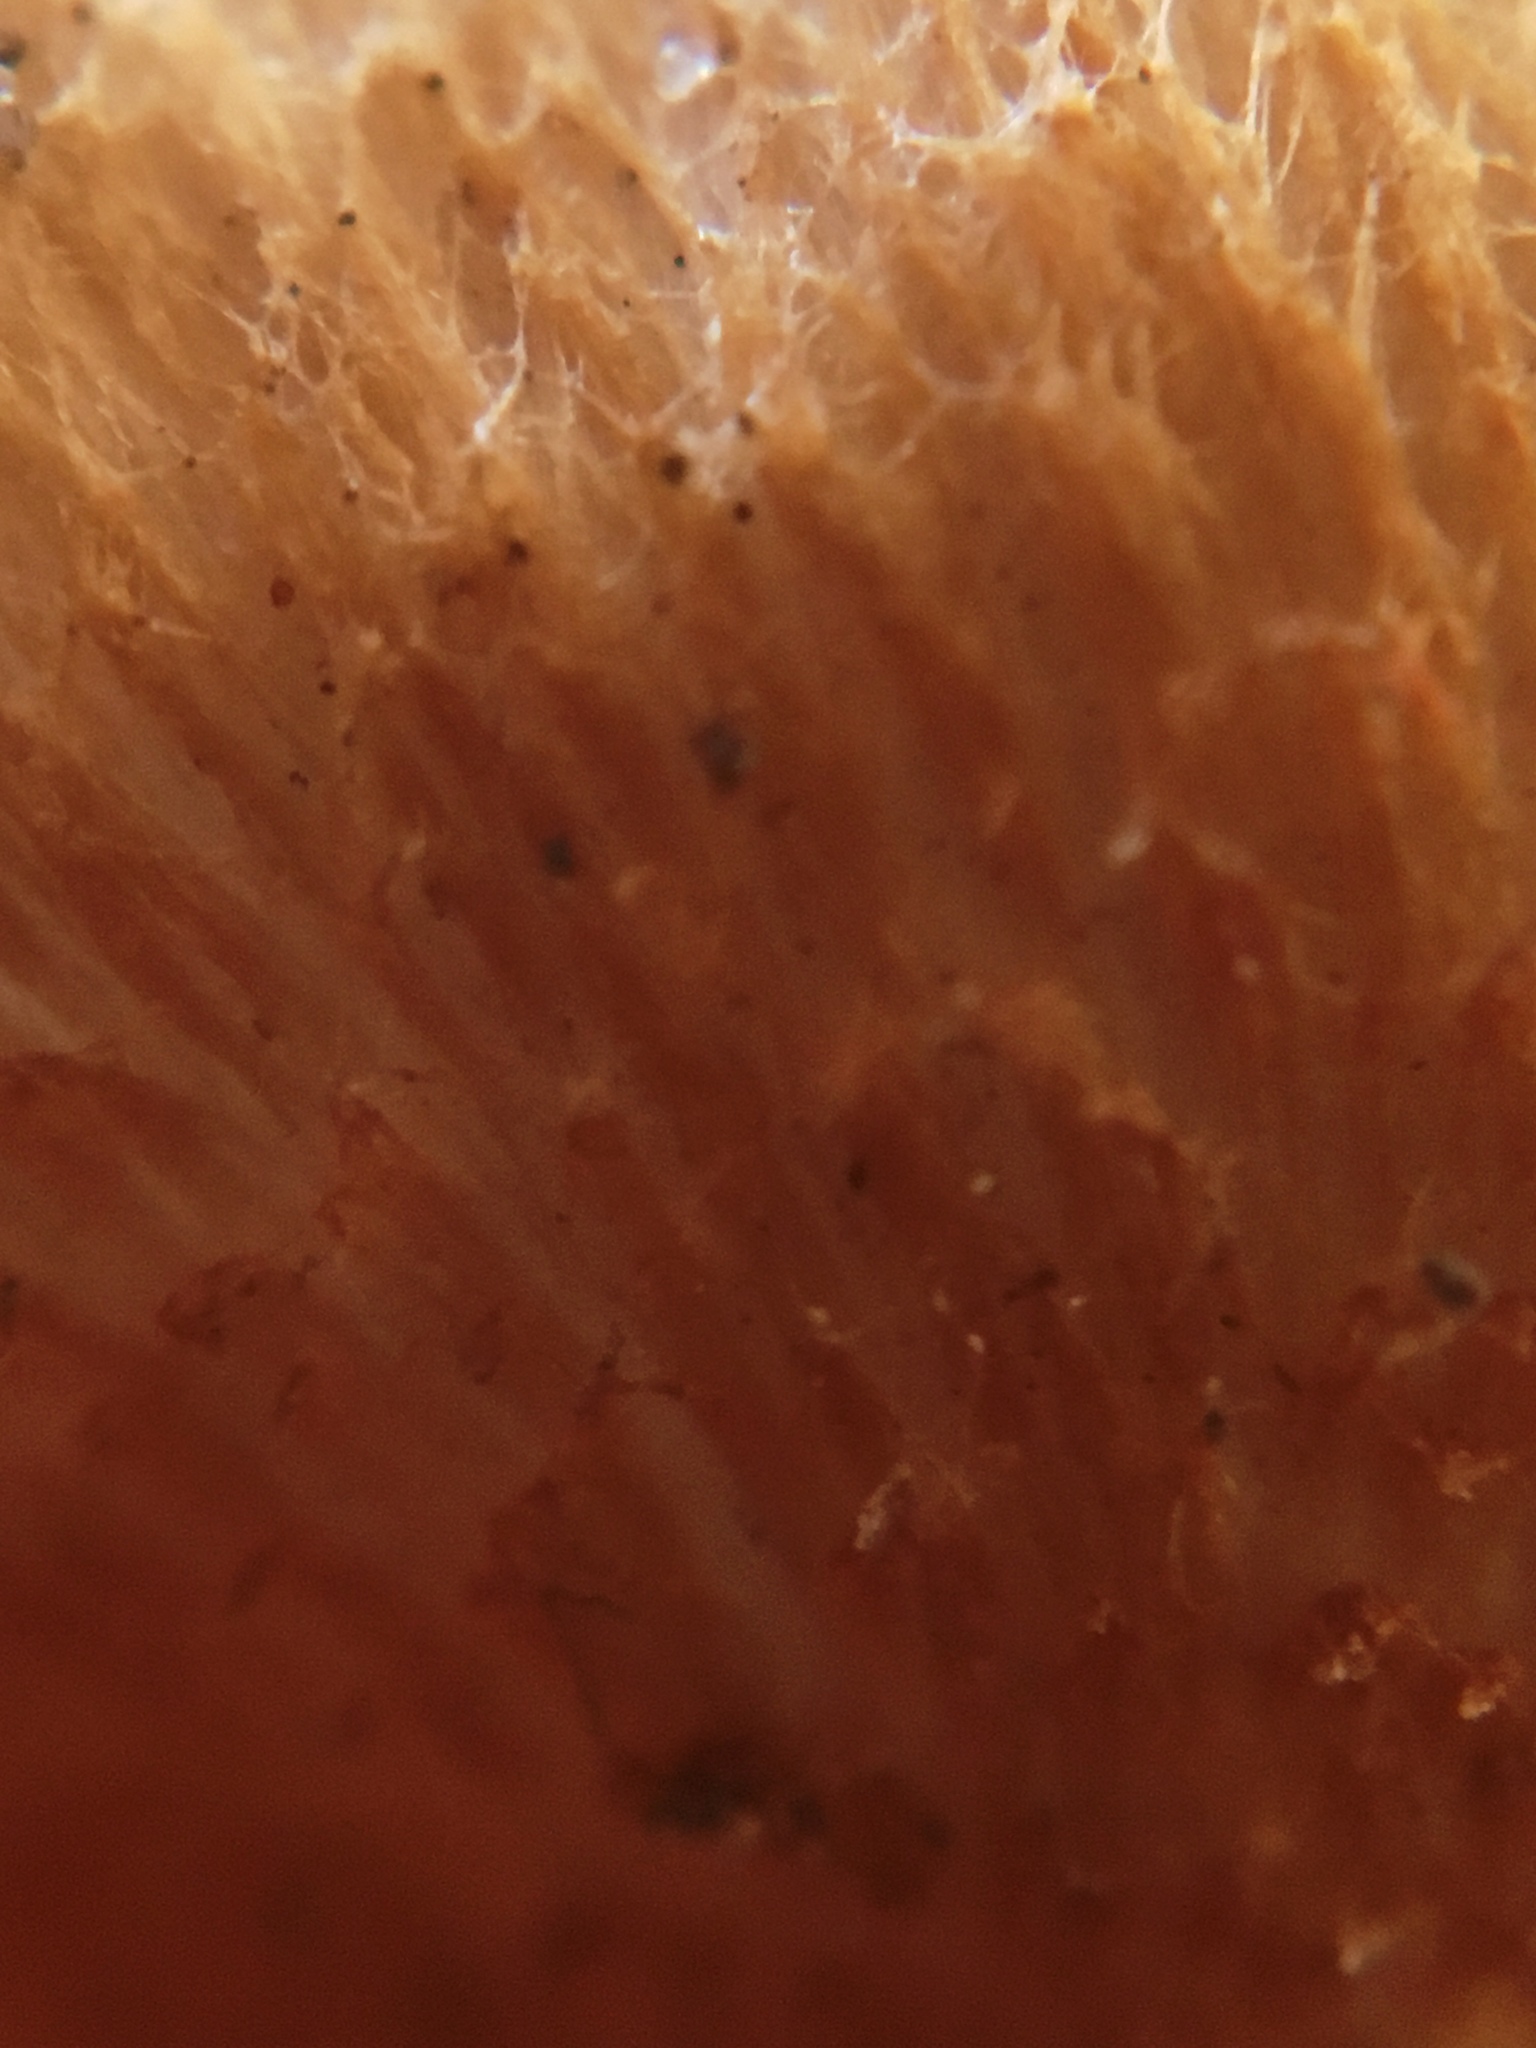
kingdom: Fungi
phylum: Basidiomycota
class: Agaricomycetes
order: Agaricales
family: Psathyrellaceae
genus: Lacrymaria
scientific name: Lacrymaria lacrymabunda
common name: Weeping widow
